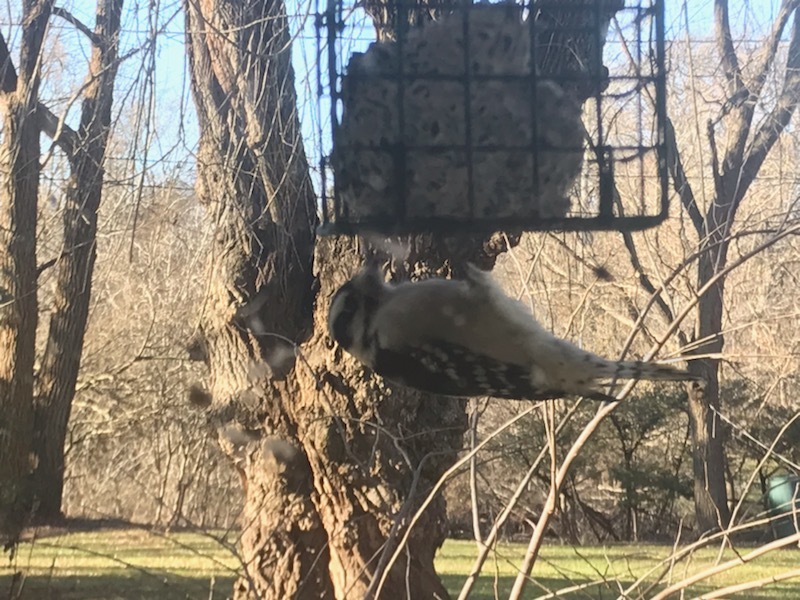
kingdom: Animalia
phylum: Chordata
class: Aves
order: Piciformes
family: Picidae
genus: Dryobates
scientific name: Dryobates pubescens
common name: Downy woodpecker
